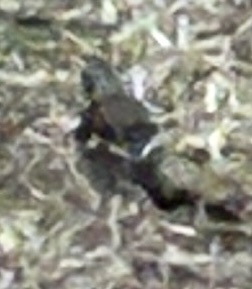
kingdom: Animalia
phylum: Chordata
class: Aves
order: Passeriformes
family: Fringillidae
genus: Fringilla
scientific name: Fringilla coelebs
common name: Common chaffinch
